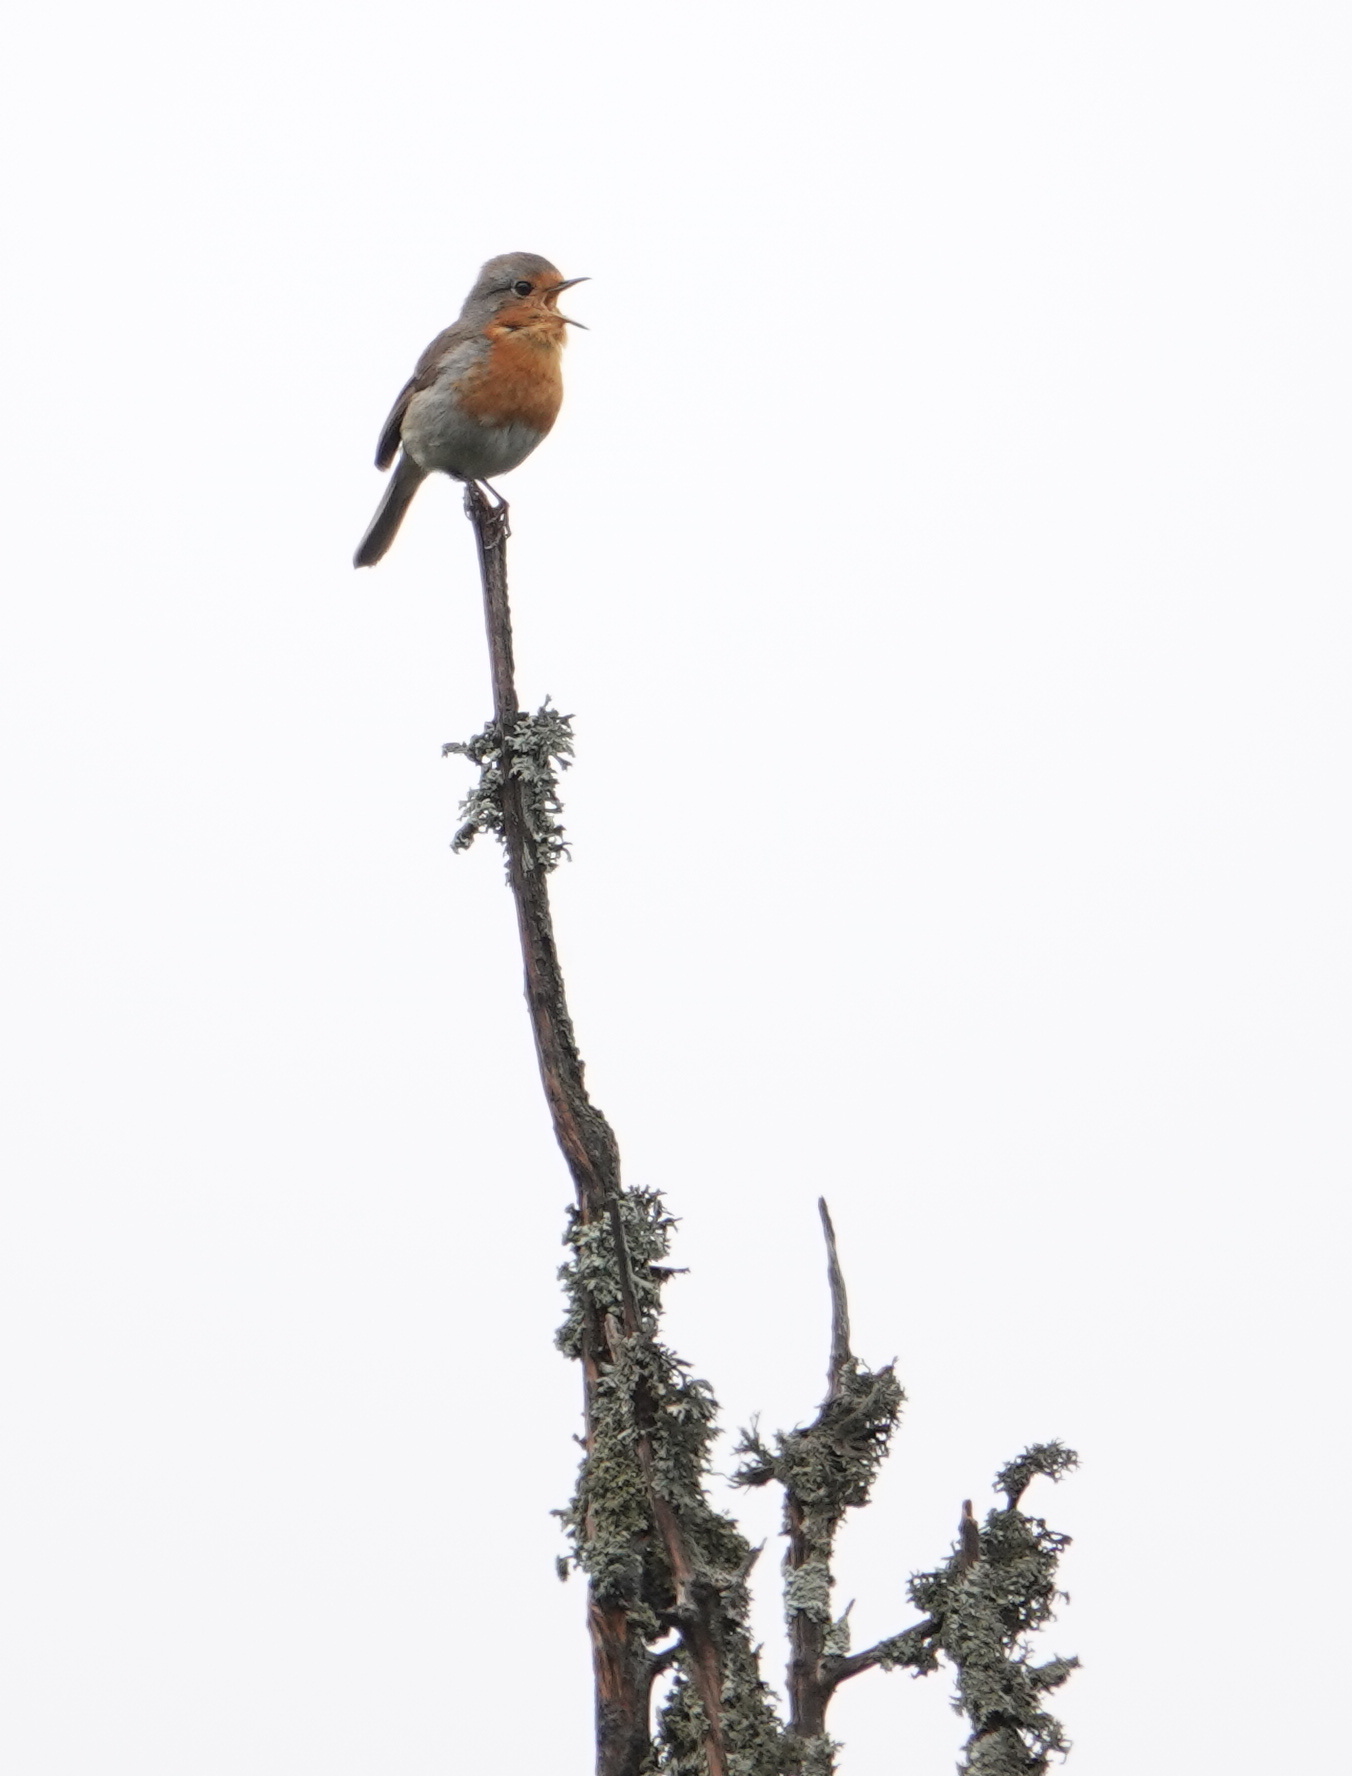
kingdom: Animalia
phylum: Chordata
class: Aves
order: Passeriformes
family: Muscicapidae
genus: Erithacus
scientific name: Erithacus rubecula
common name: European robin
